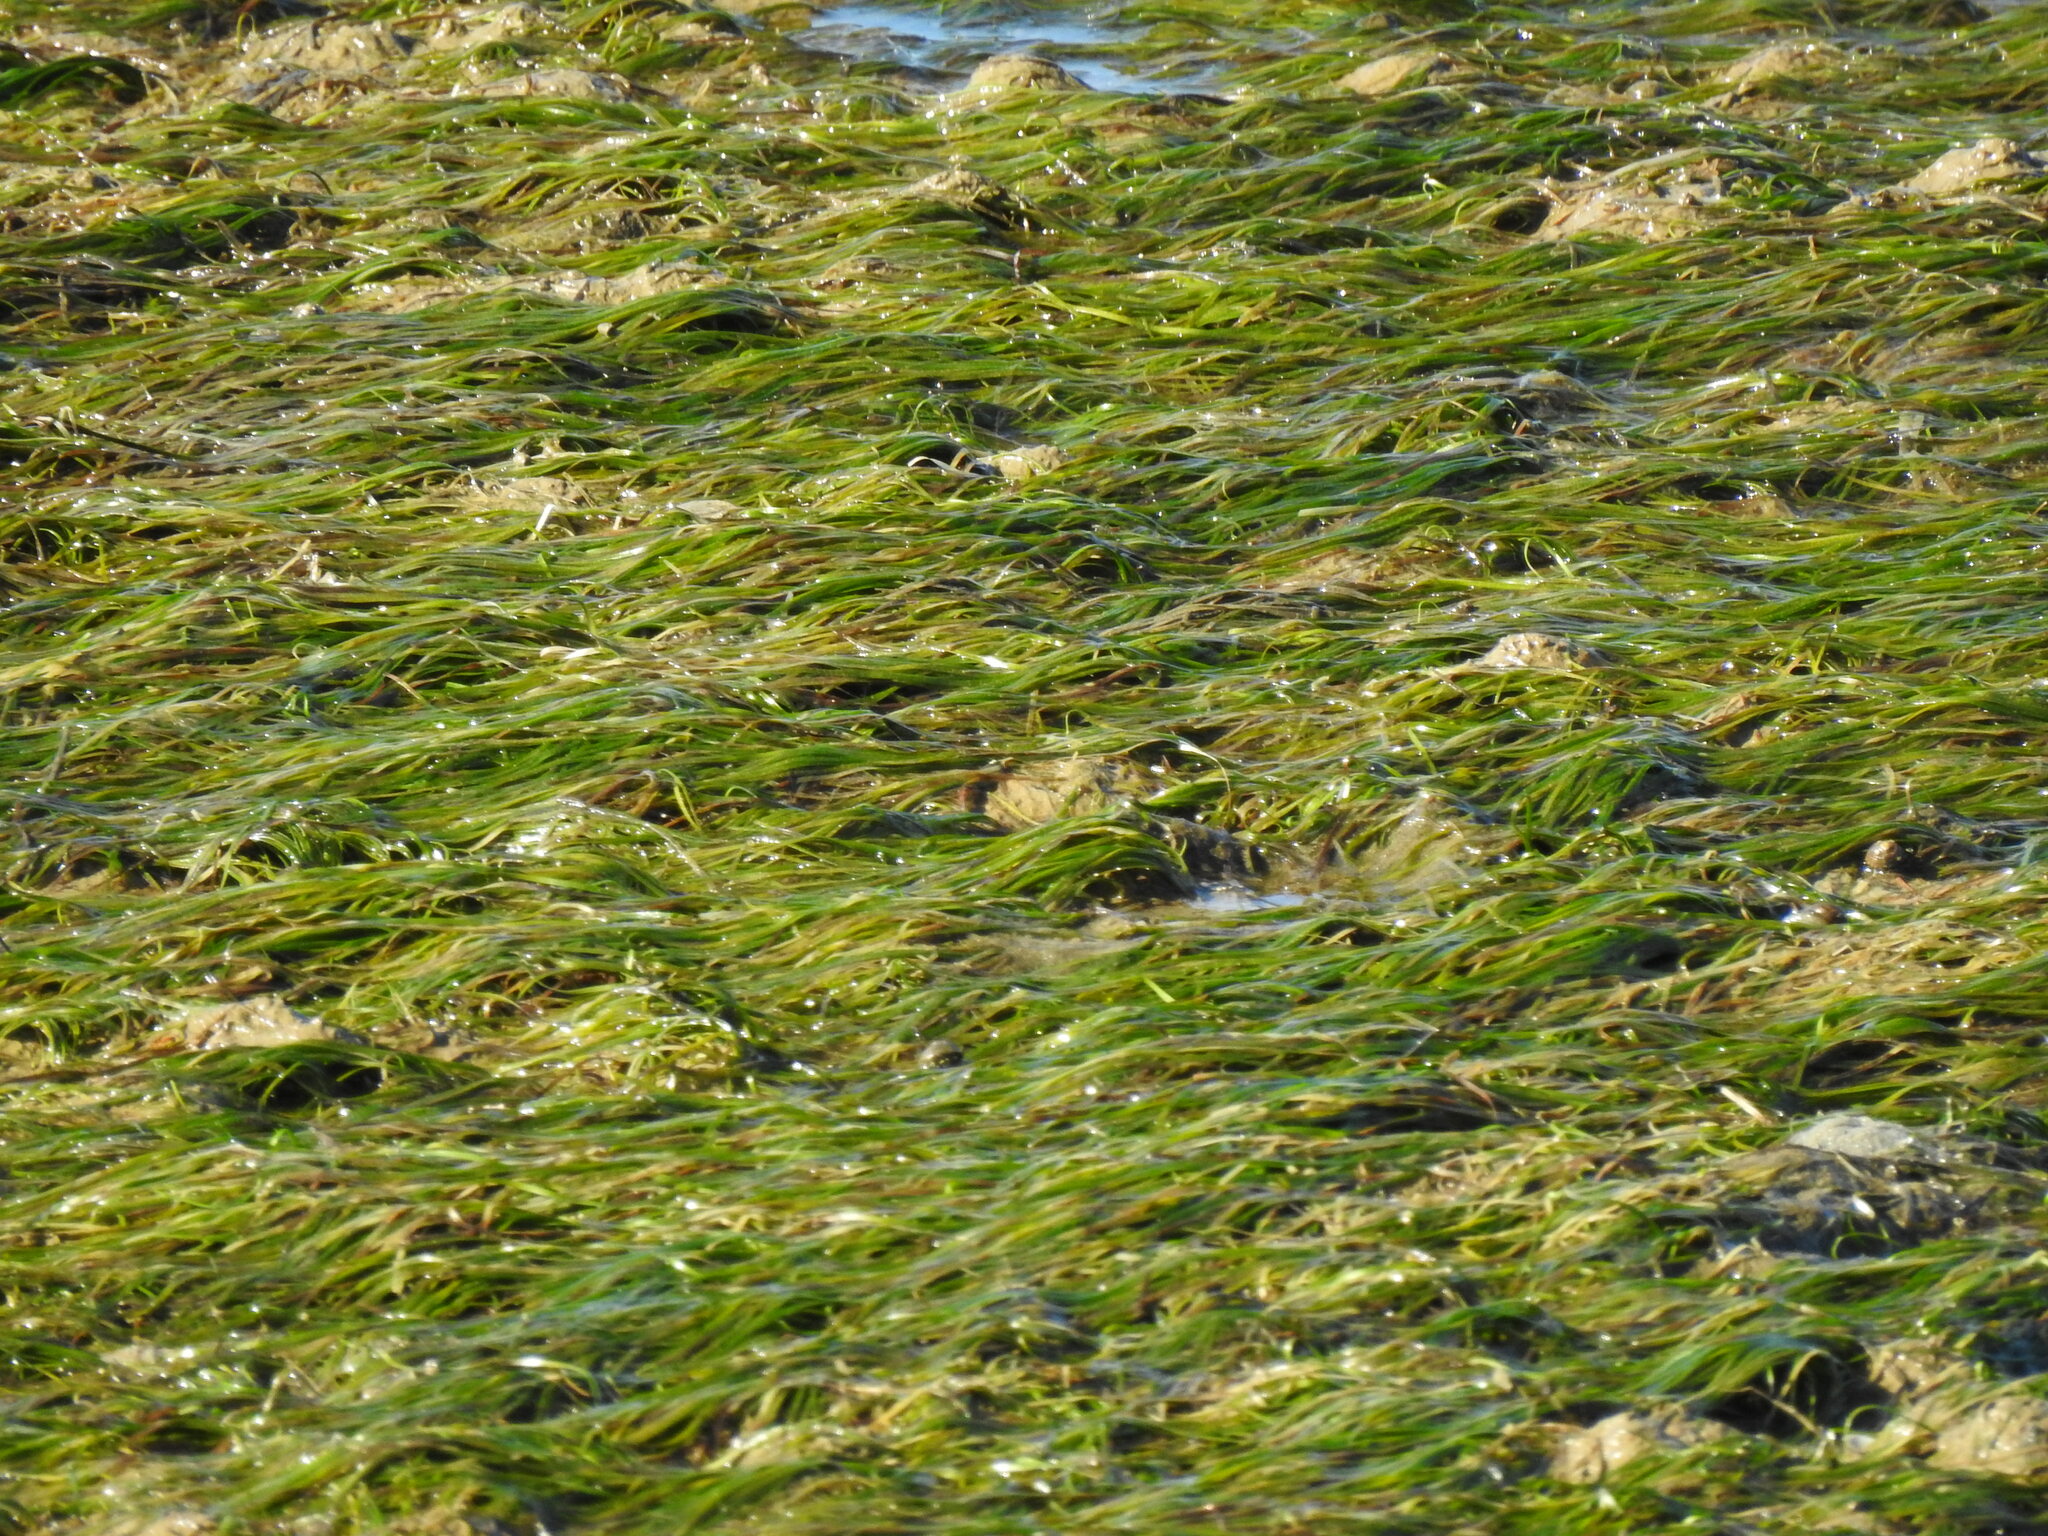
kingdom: Plantae
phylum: Tracheophyta
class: Liliopsida
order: Alismatales
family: Zosteraceae
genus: Zostera
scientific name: Zostera noltii
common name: Dwarf eelgrass
